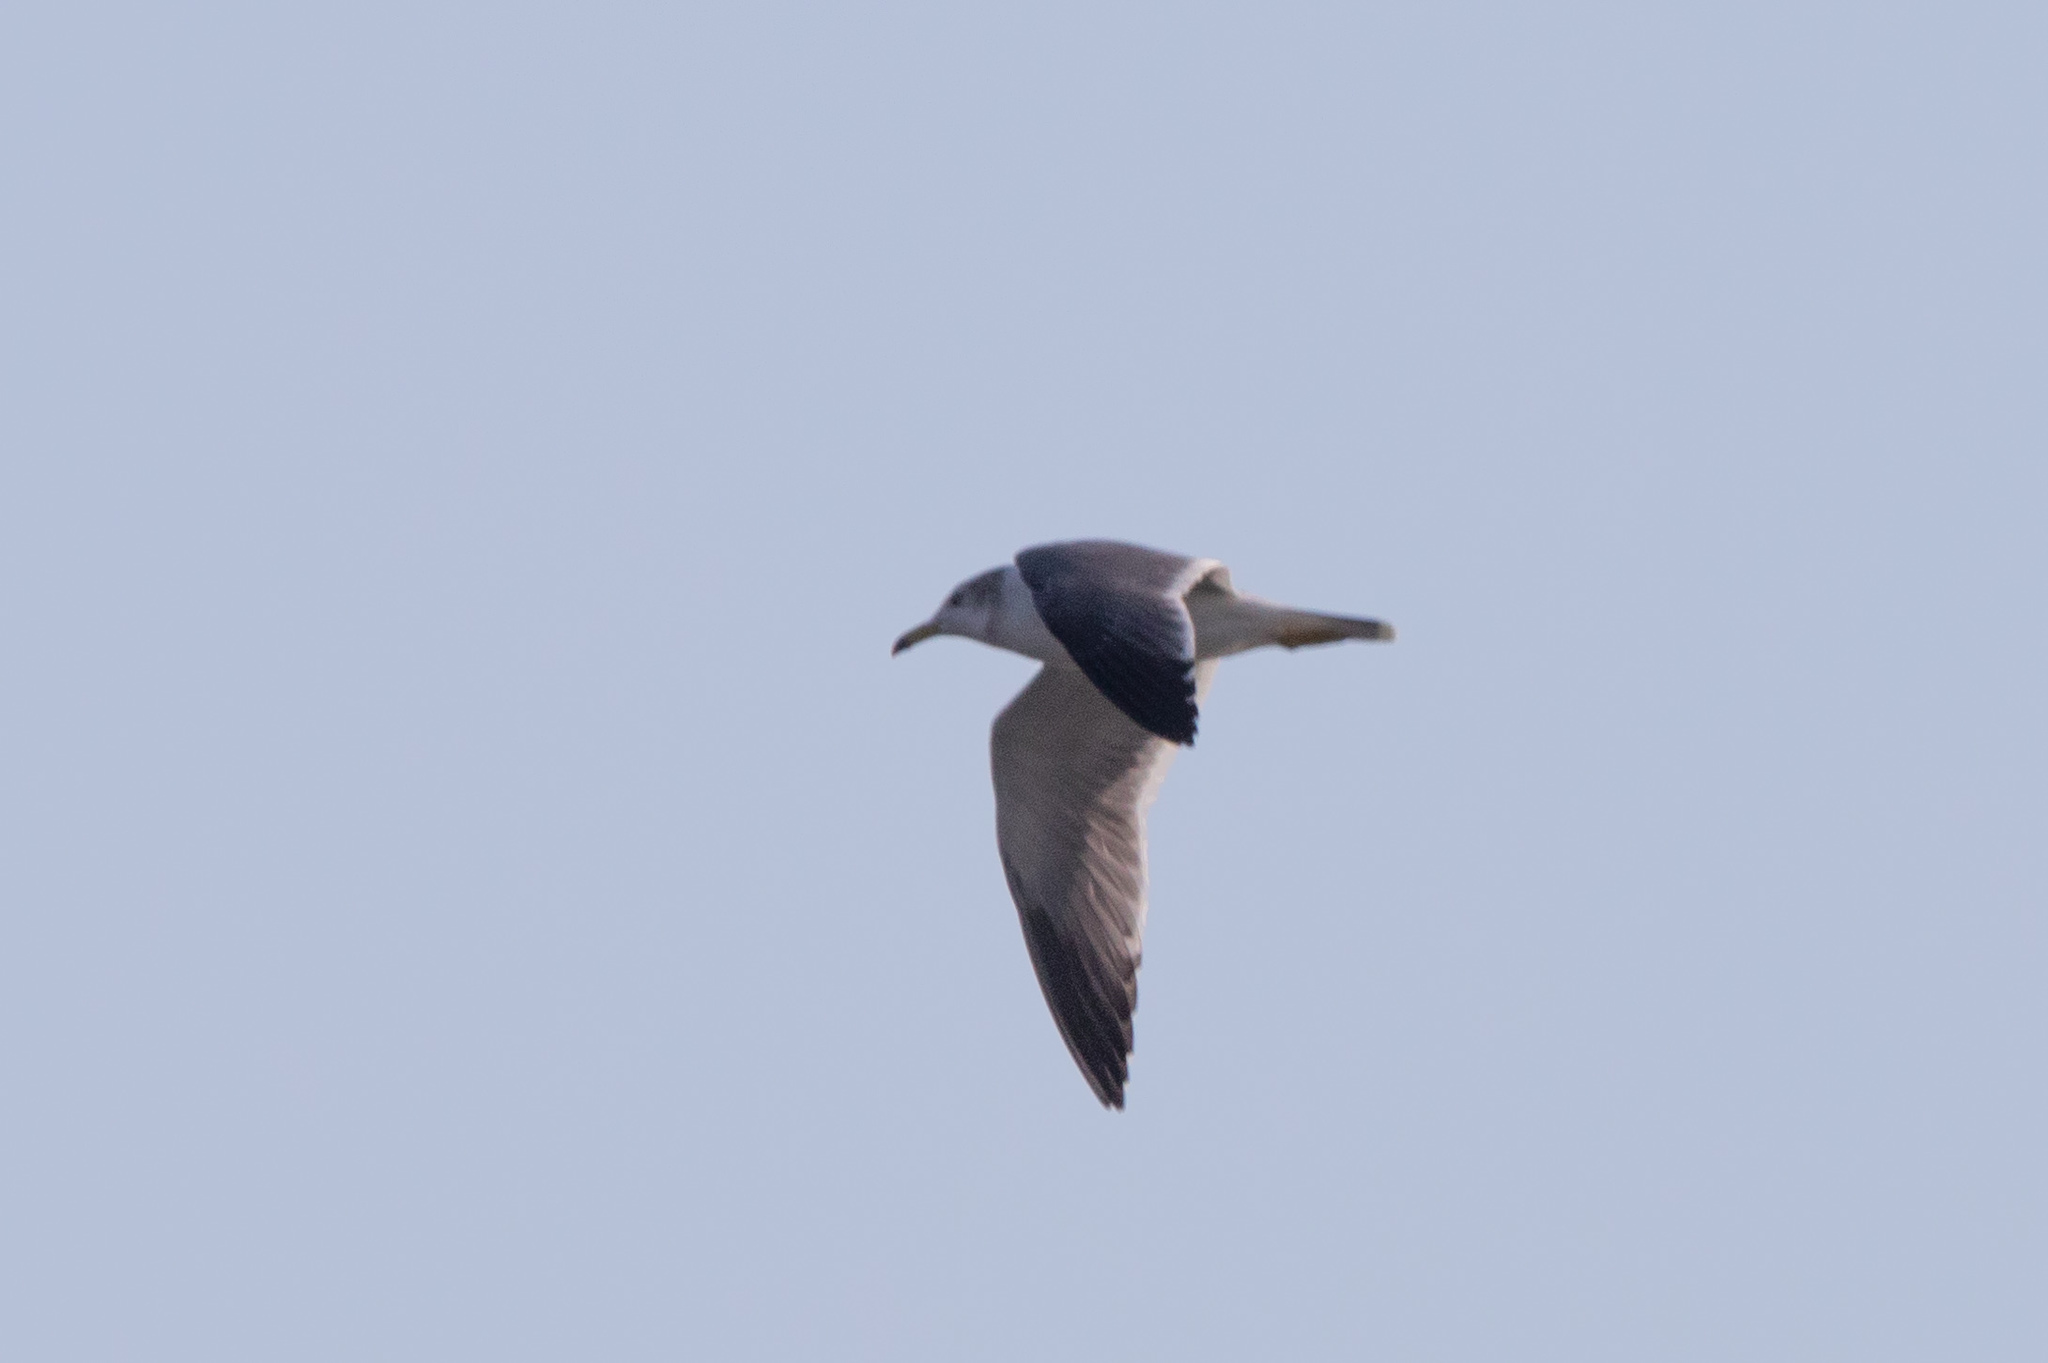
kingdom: Animalia
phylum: Chordata
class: Aves
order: Charadriiformes
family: Laridae
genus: Larus
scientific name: Larus crassirostris
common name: Black-tailed gull
